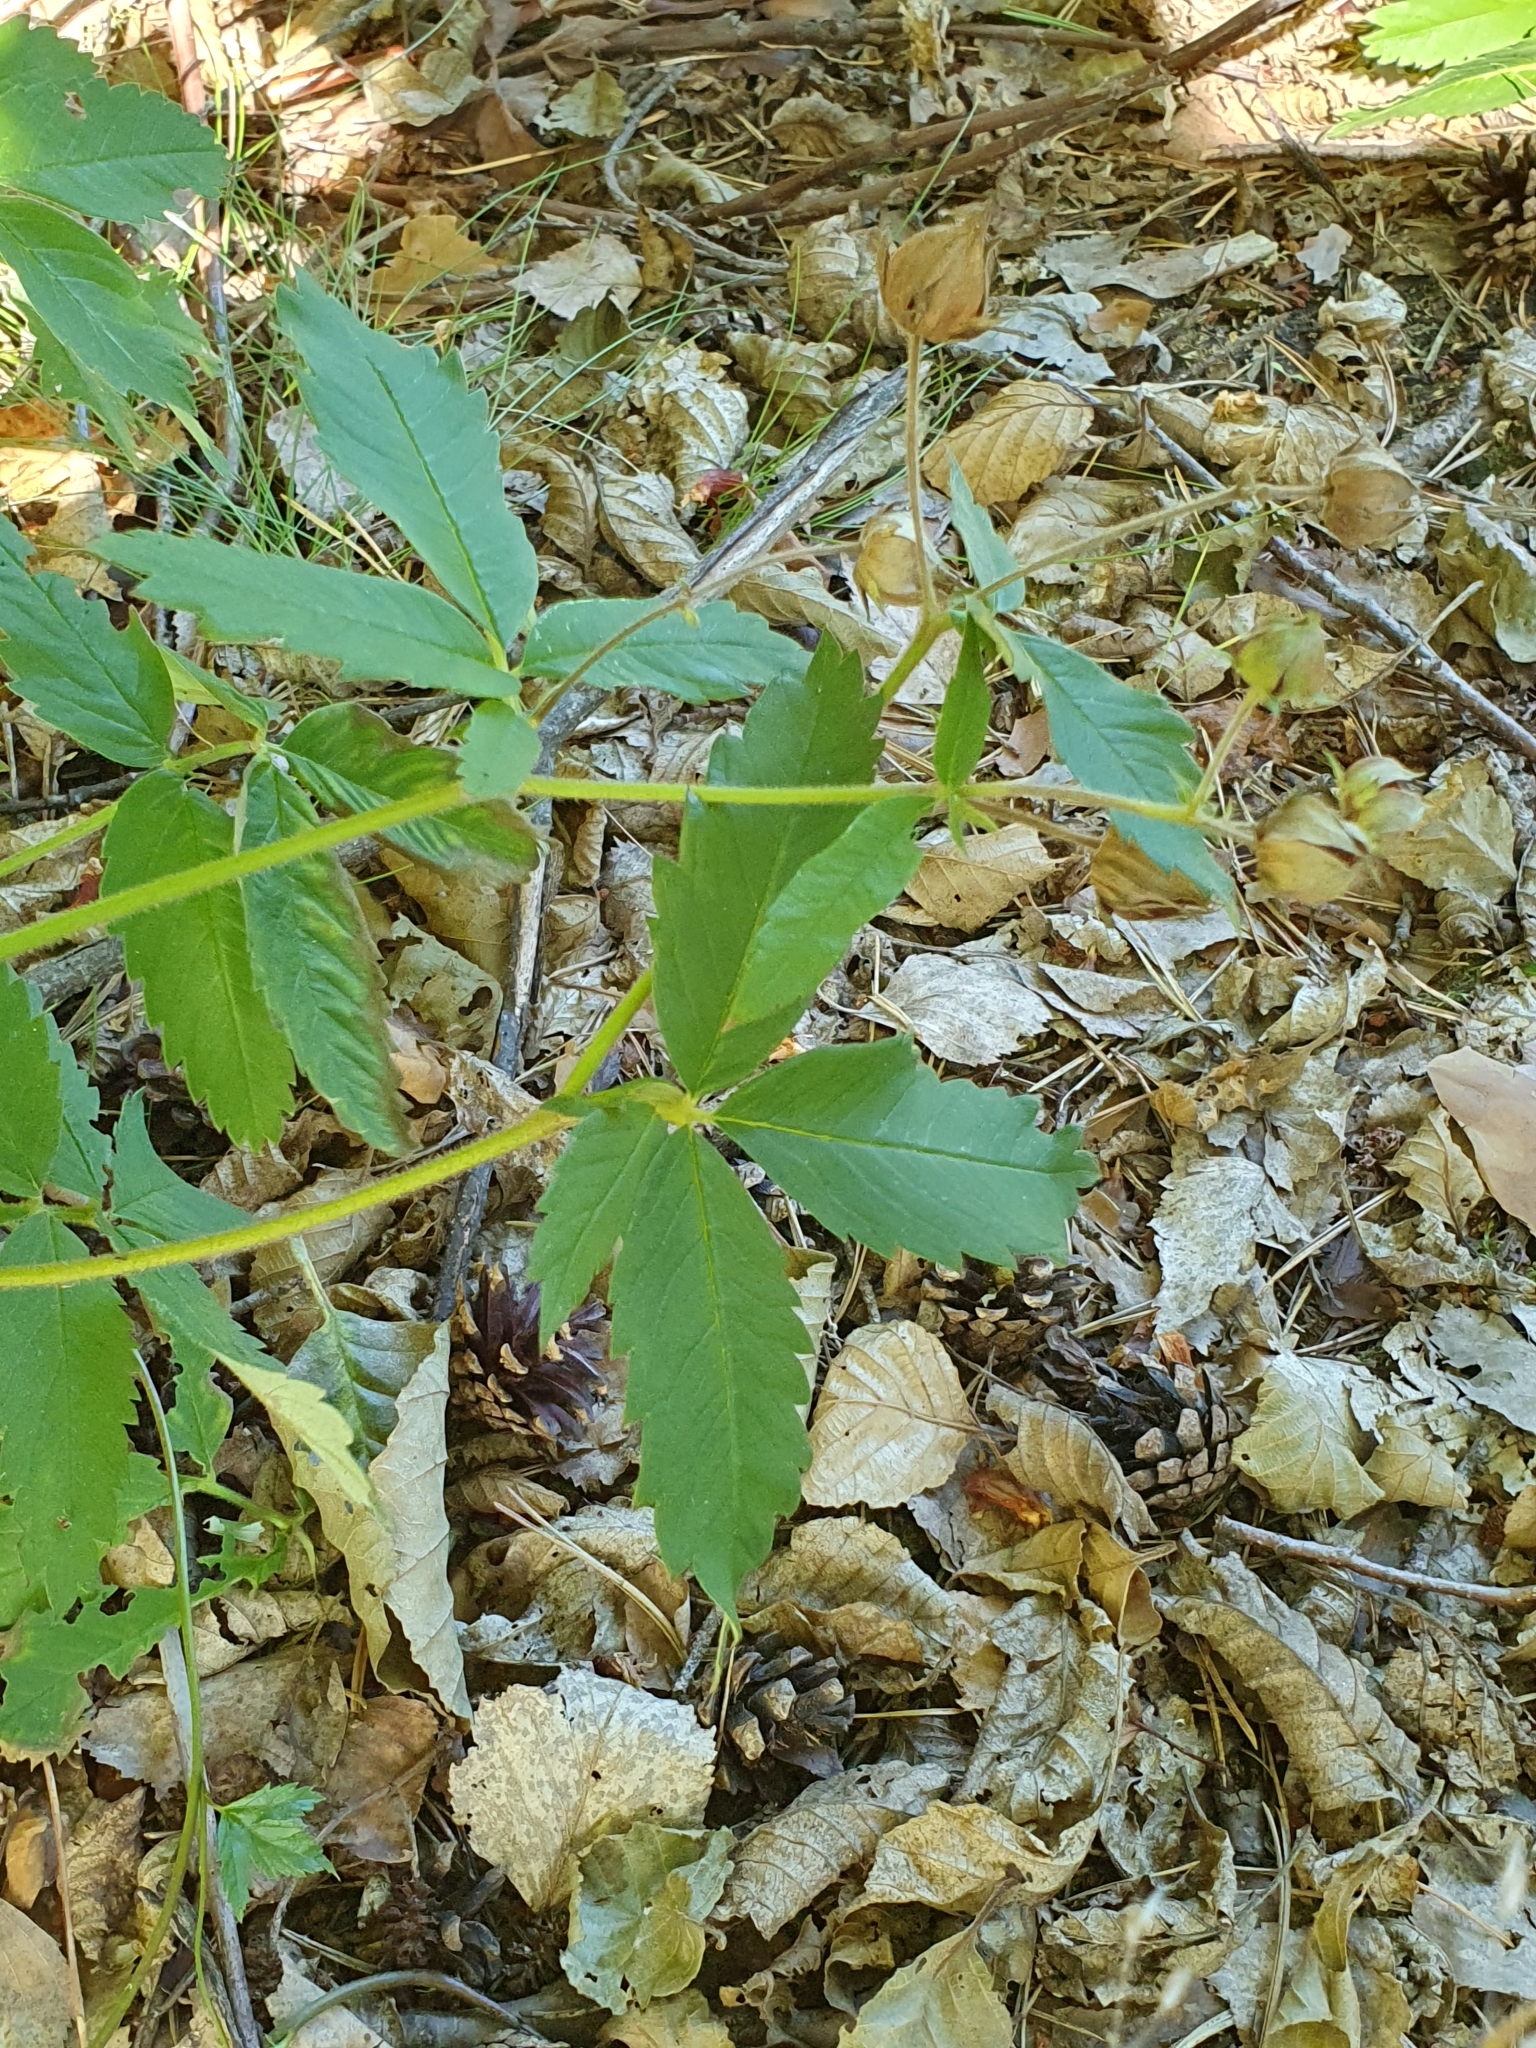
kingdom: Plantae
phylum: Tracheophyta
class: Magnoliopsida
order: Rosales
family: Rosaceae
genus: Comarum
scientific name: Comarum palustre
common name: Marsh cinquefoil
